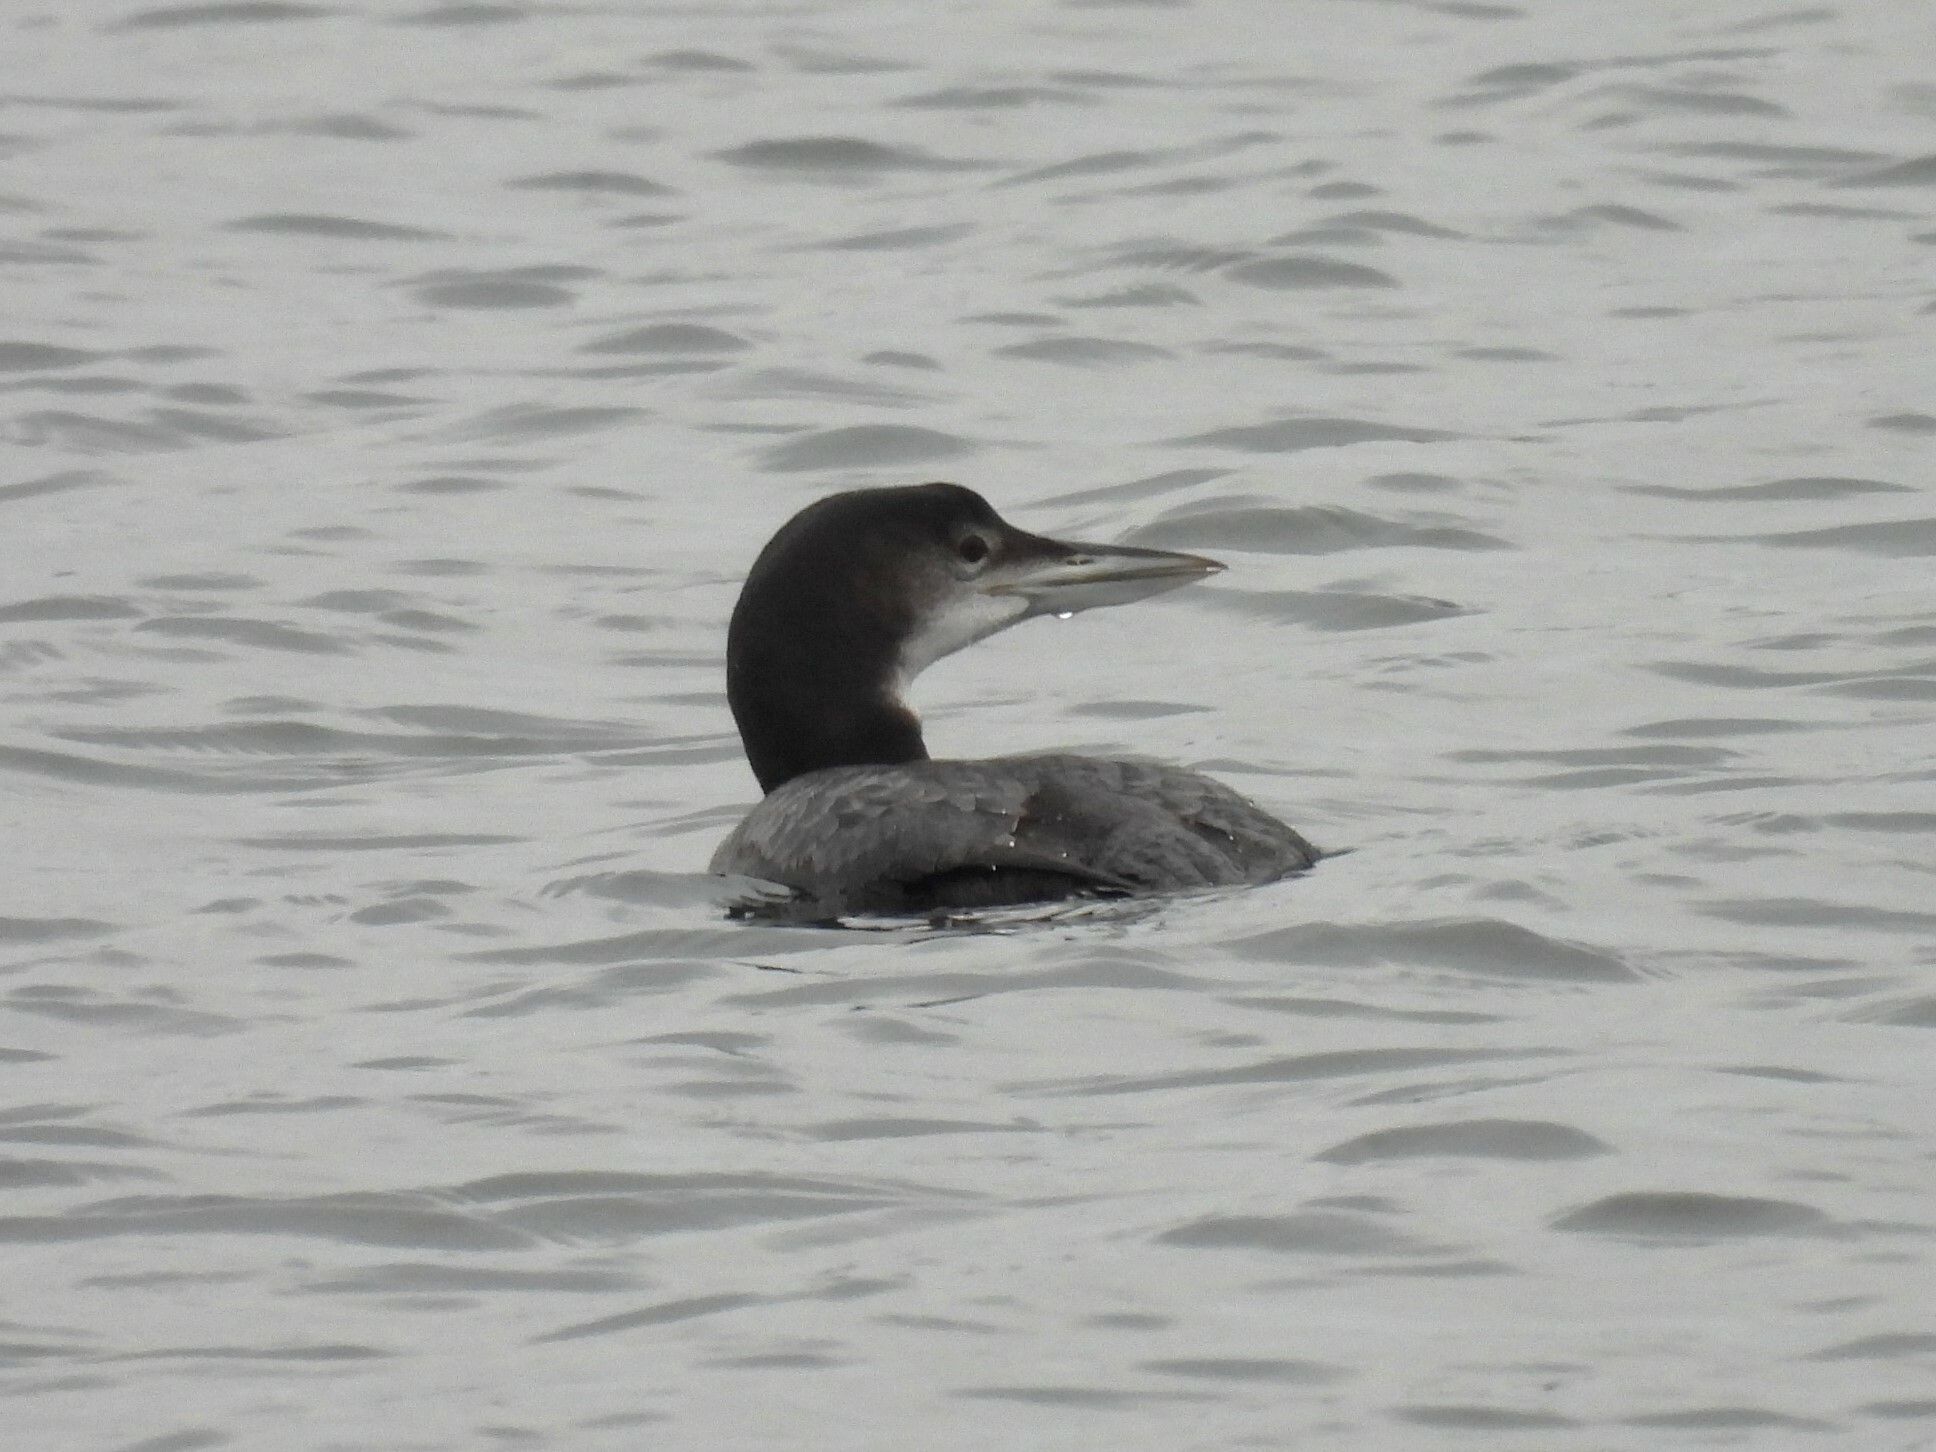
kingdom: Animalia
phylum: Chordata
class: Aves
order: Gaviiformes
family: Gaviidae
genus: Gavia
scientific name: Gavia immer
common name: Common loon
